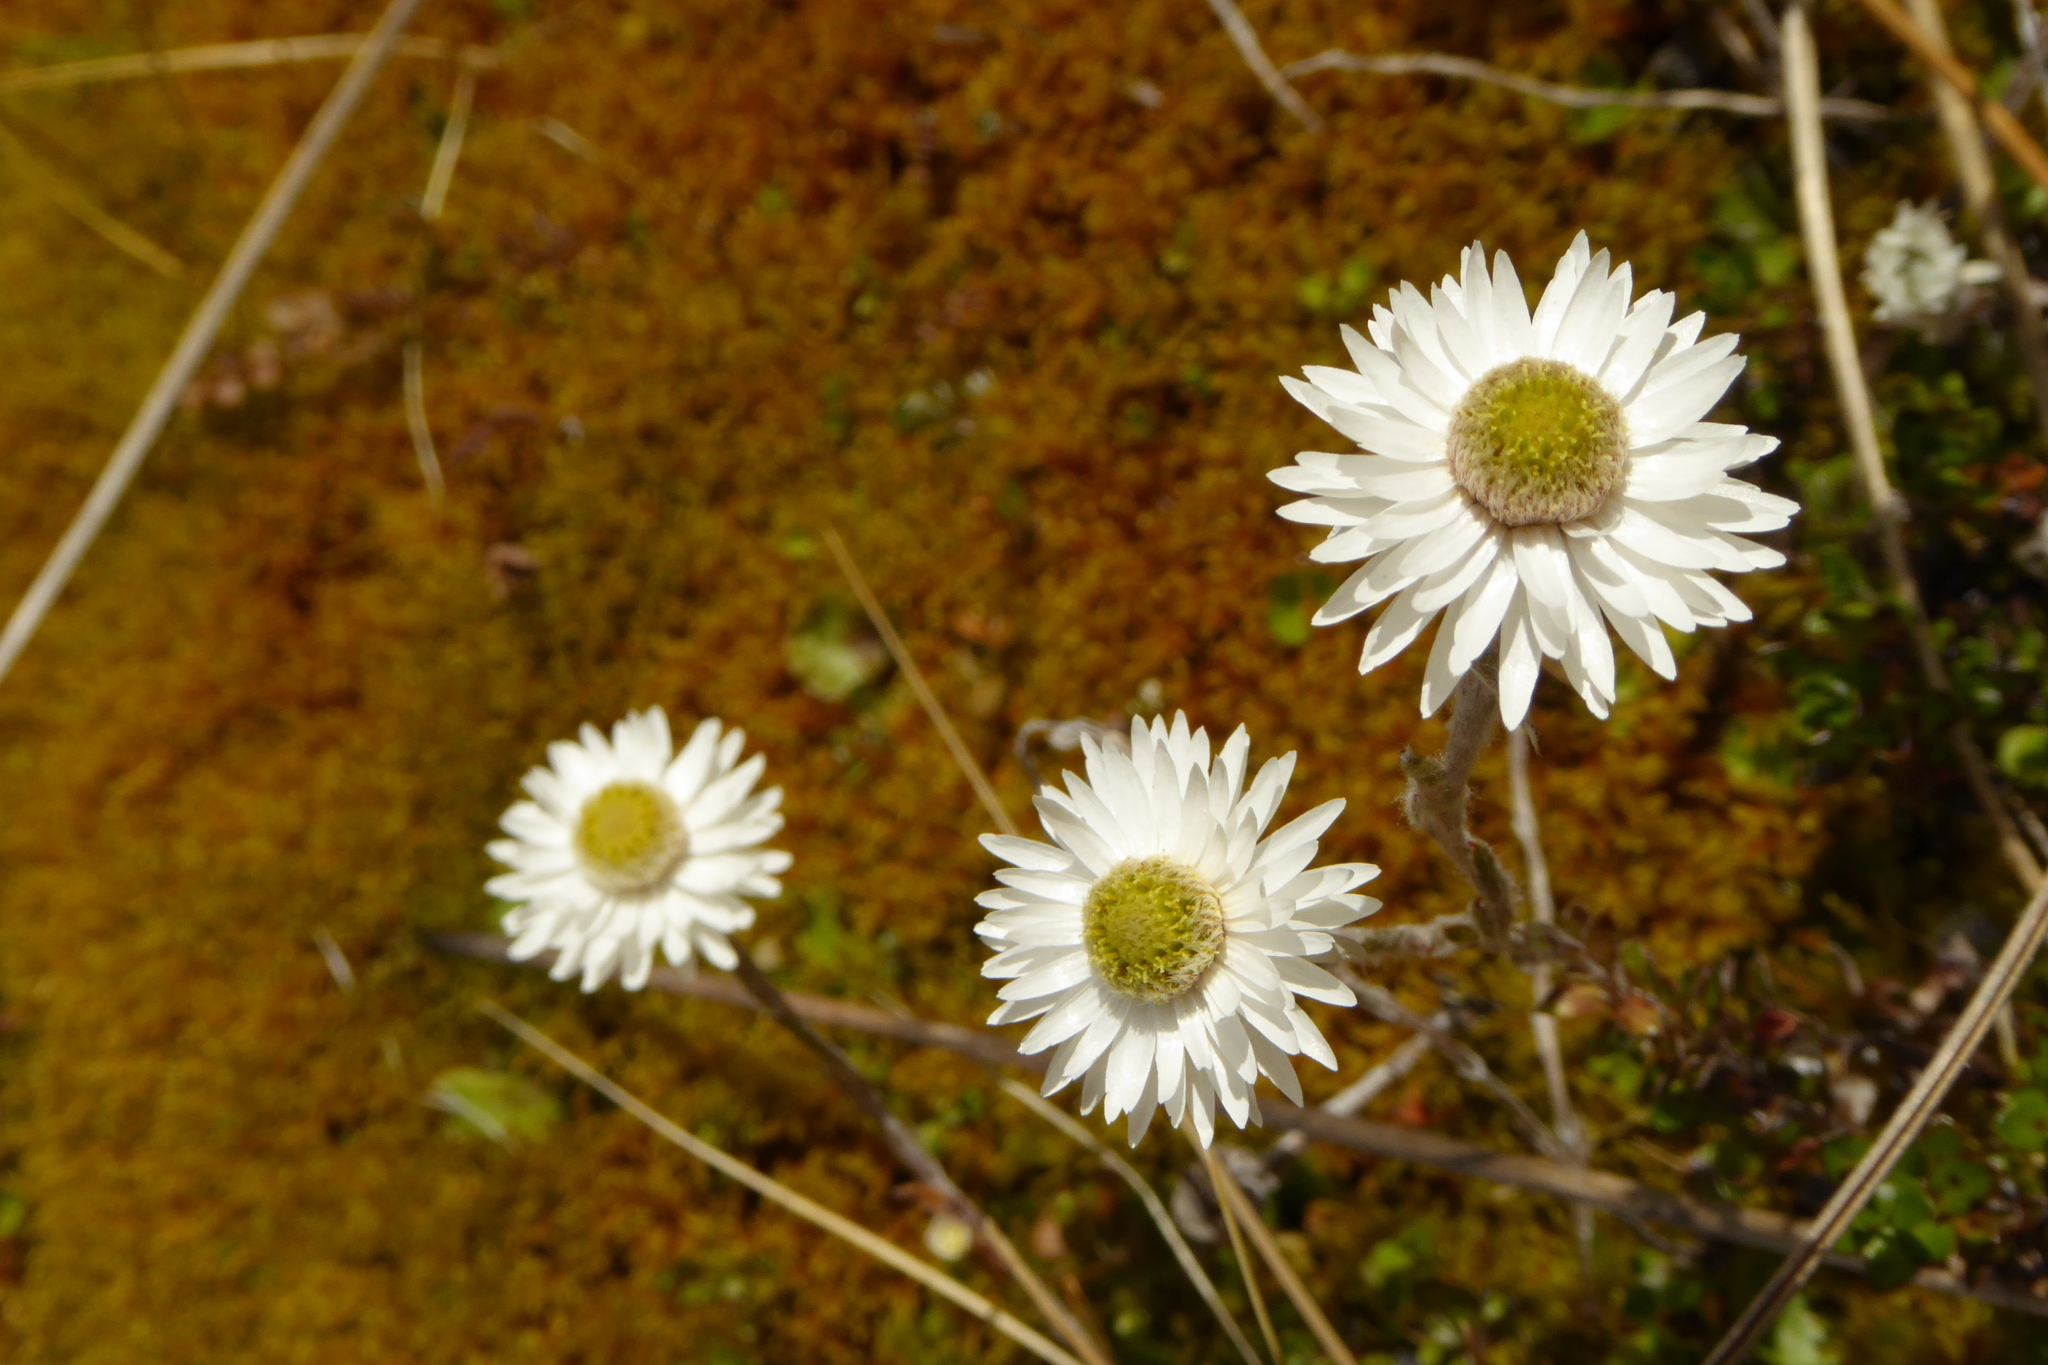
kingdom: Plantae
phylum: Tracheophyta
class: Magnoliopsida
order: Asterales
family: Asteraceae
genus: Anaphalioides
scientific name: Anaphalioides bellidioides
